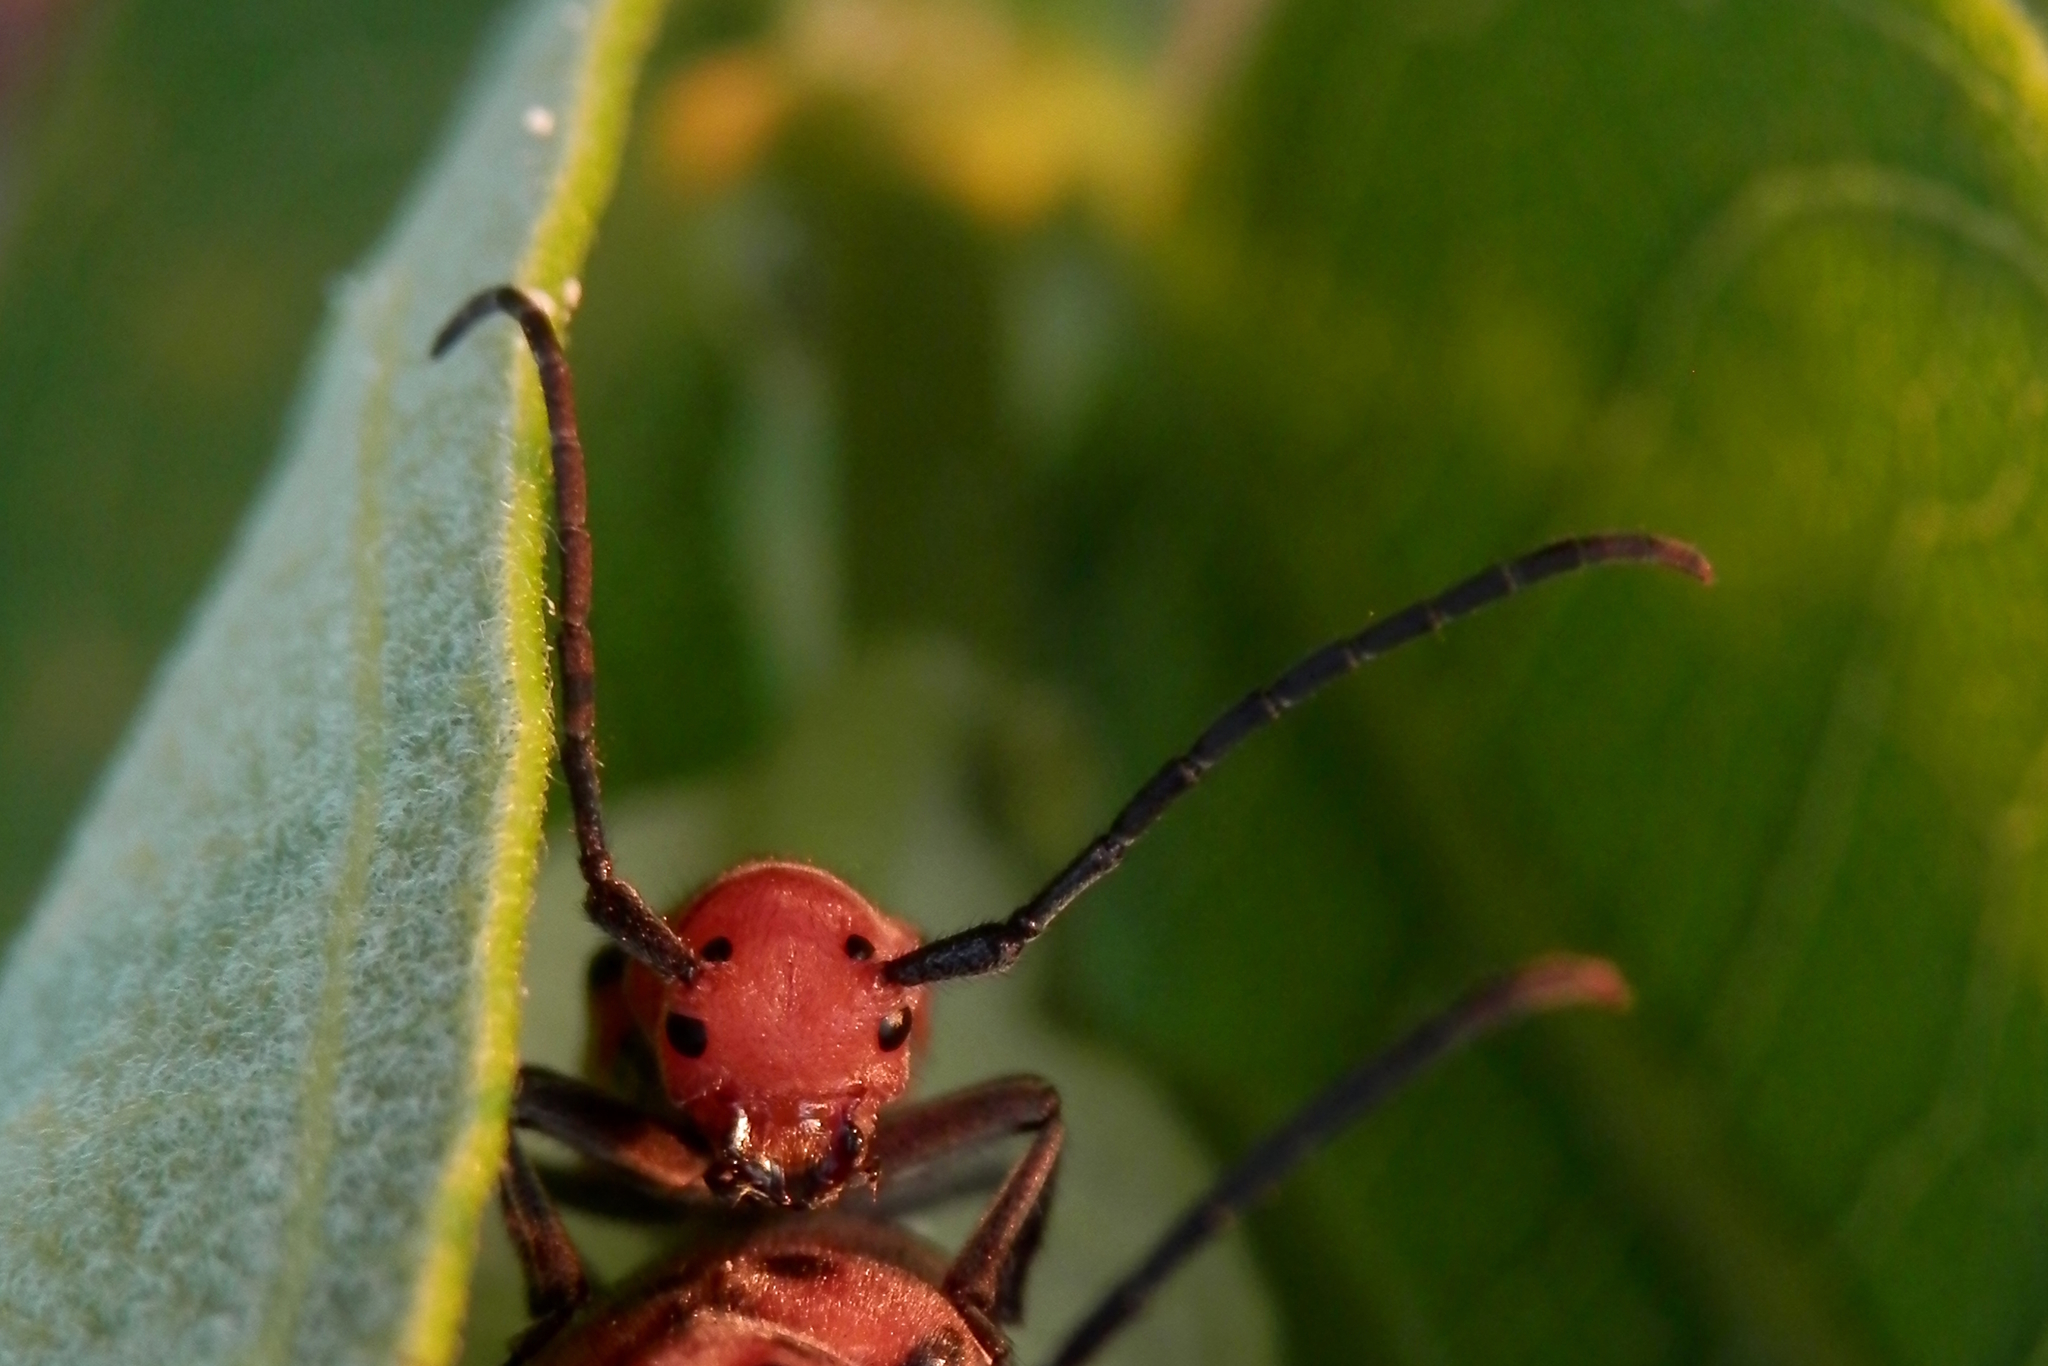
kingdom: Animalia
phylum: Arthropoda
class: Insecta
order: Coleoptera
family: Cerambycidae
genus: Tetraopes
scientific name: Tetraopes tetrophthalmus
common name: Red milkweed beetle
